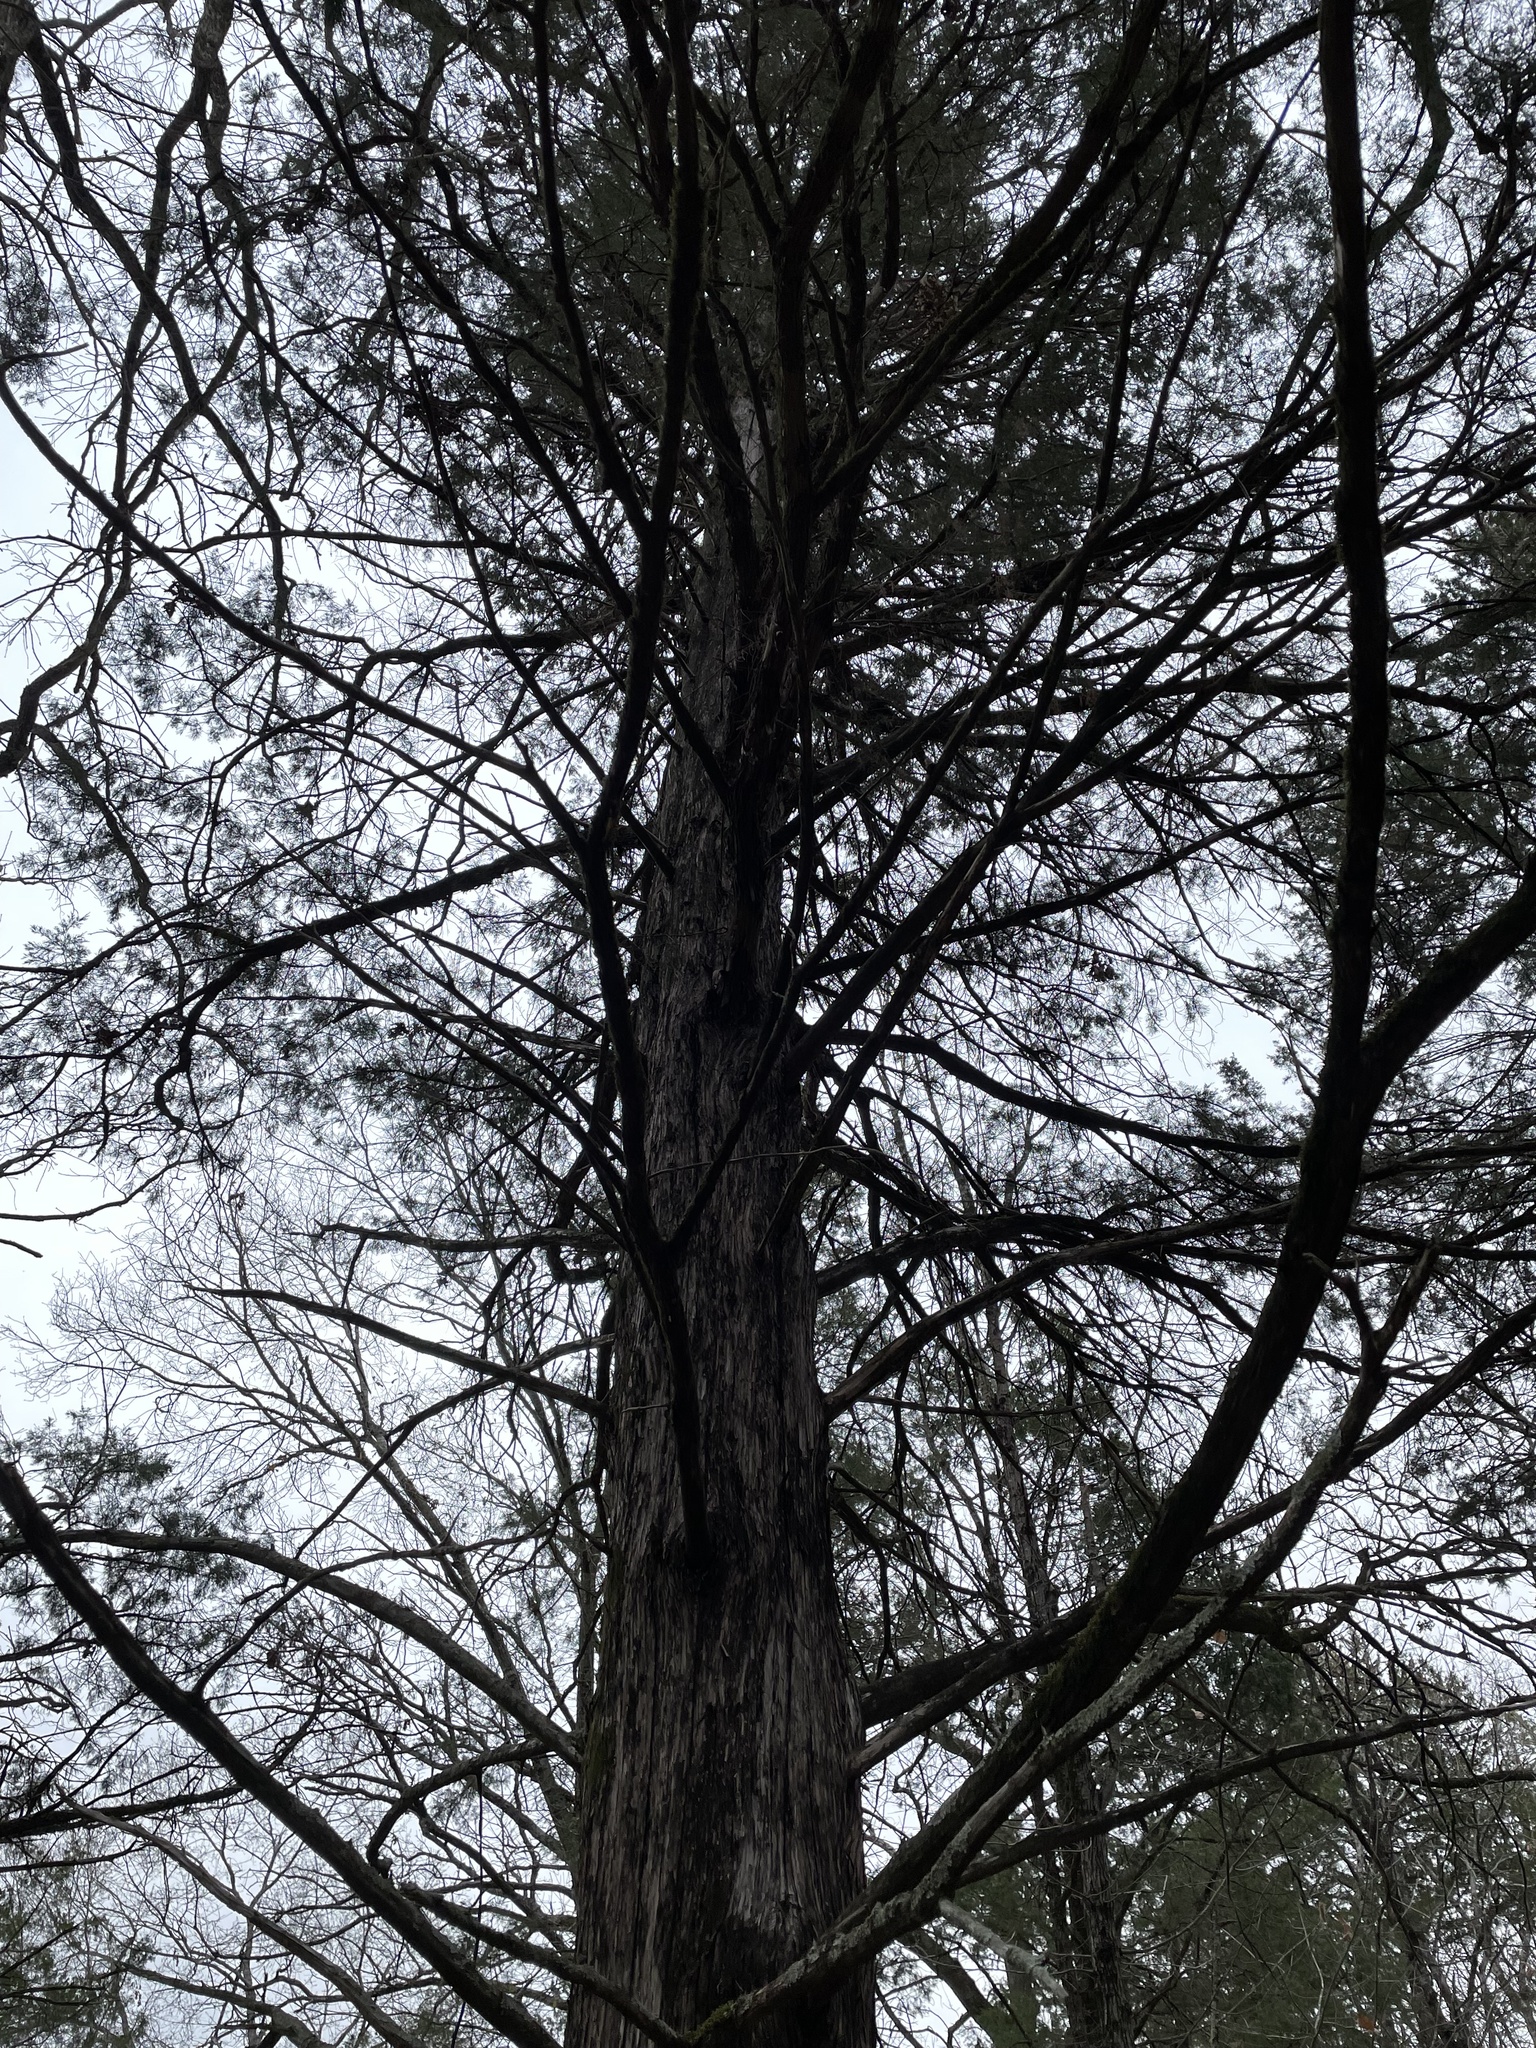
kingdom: Plantae
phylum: Tracheophyta
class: Pinopsida
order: Pinales
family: Cupressaceae
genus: Juniperus
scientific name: Juniperus virginiana
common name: Red juniper
